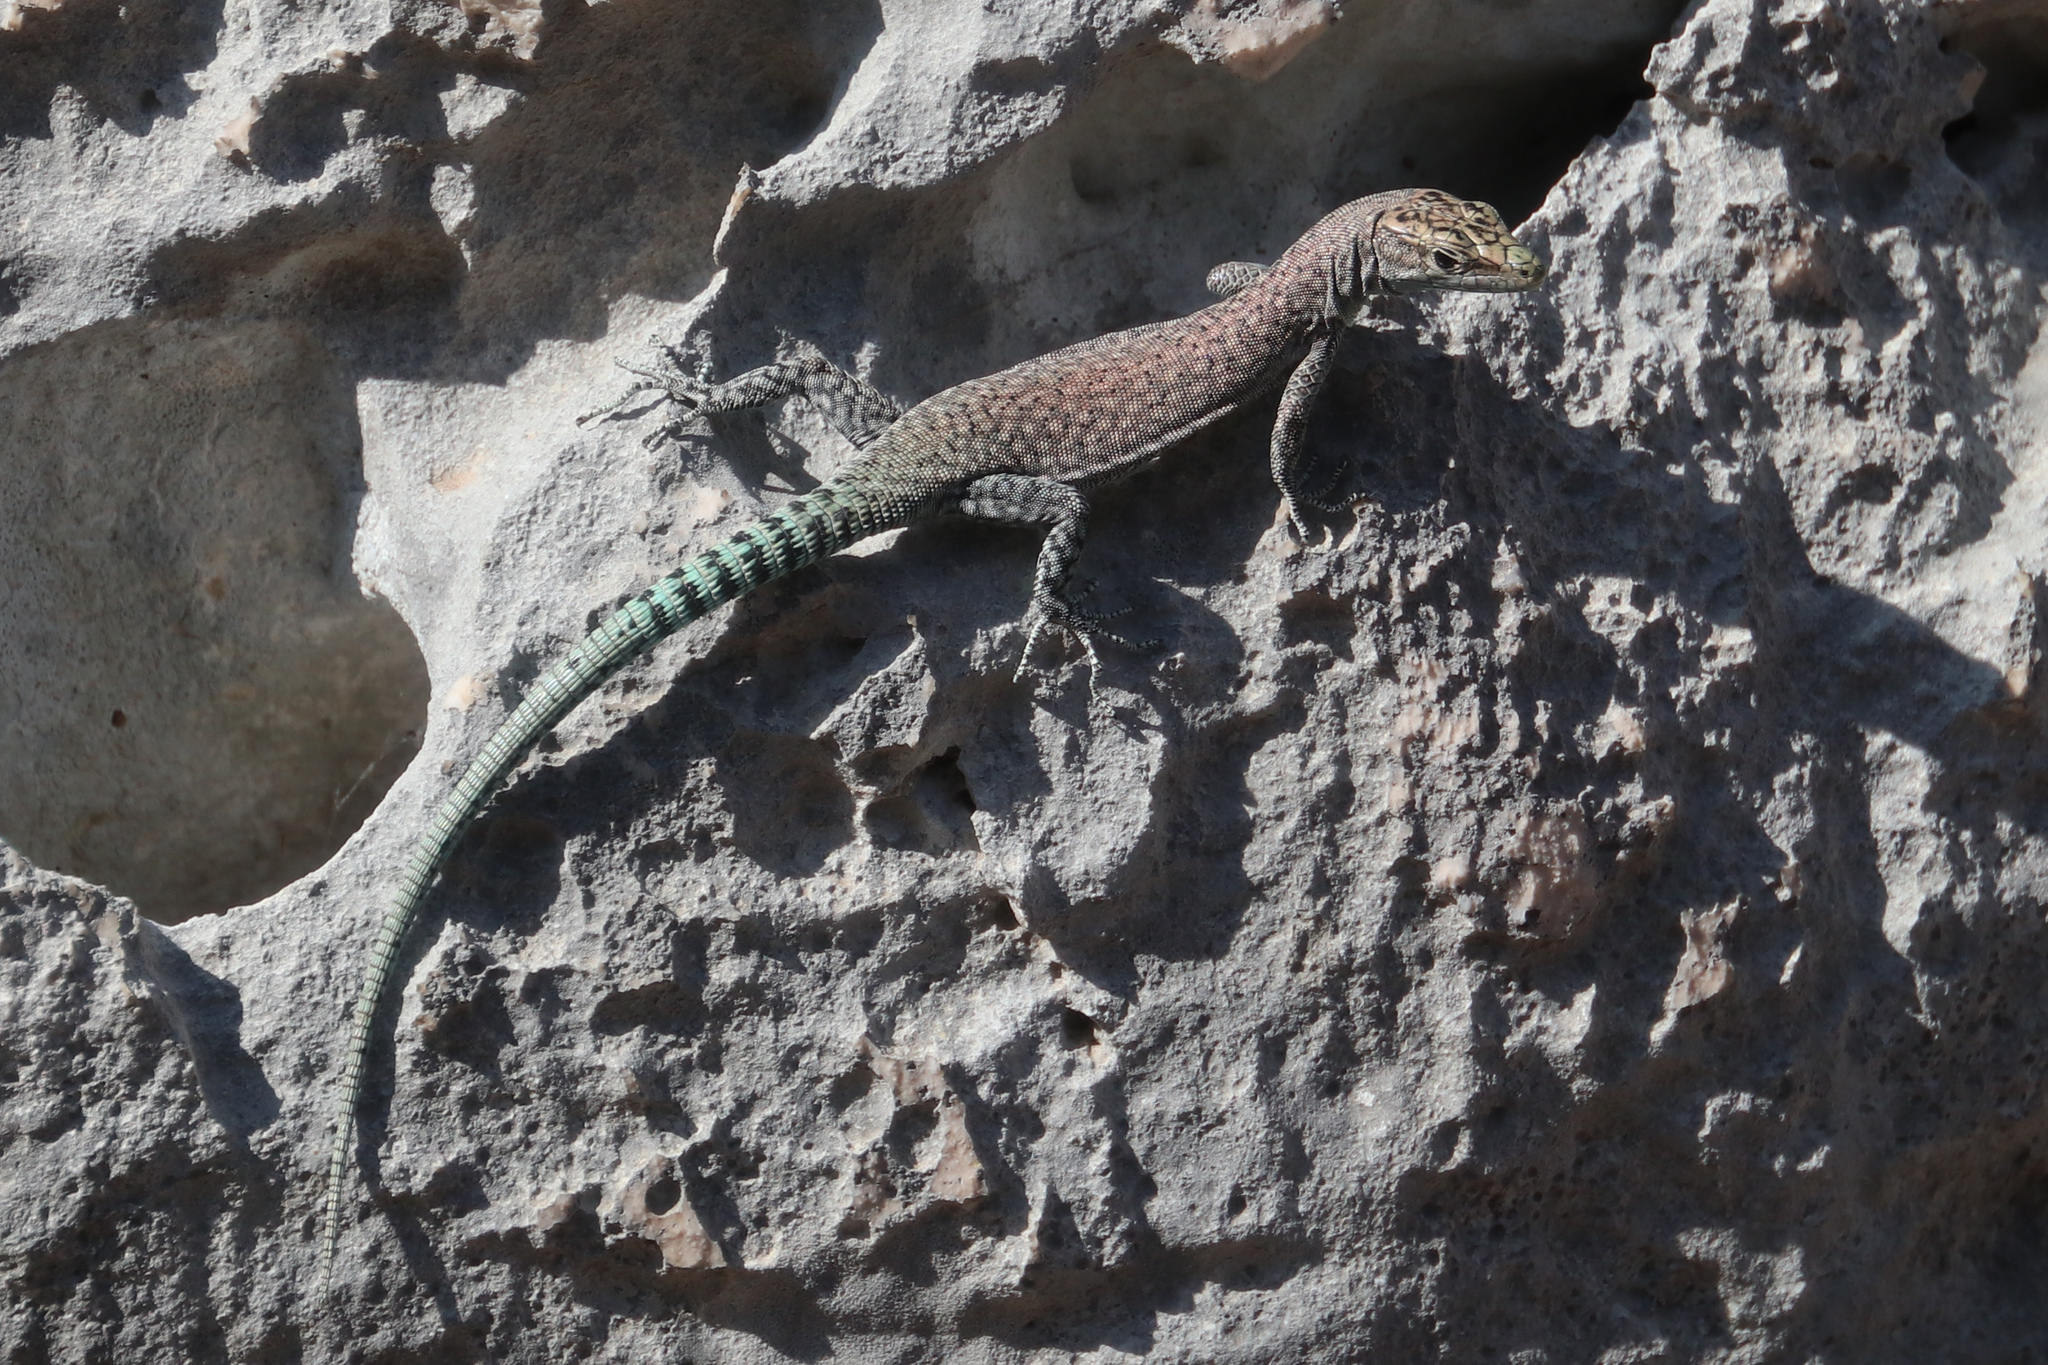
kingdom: Animalia
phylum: Chordata
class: Squamata
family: Lacertidae
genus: Dalmatolacerta
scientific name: Dalmatolacerta oxycephala
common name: Sharp-snouted rock lizard
